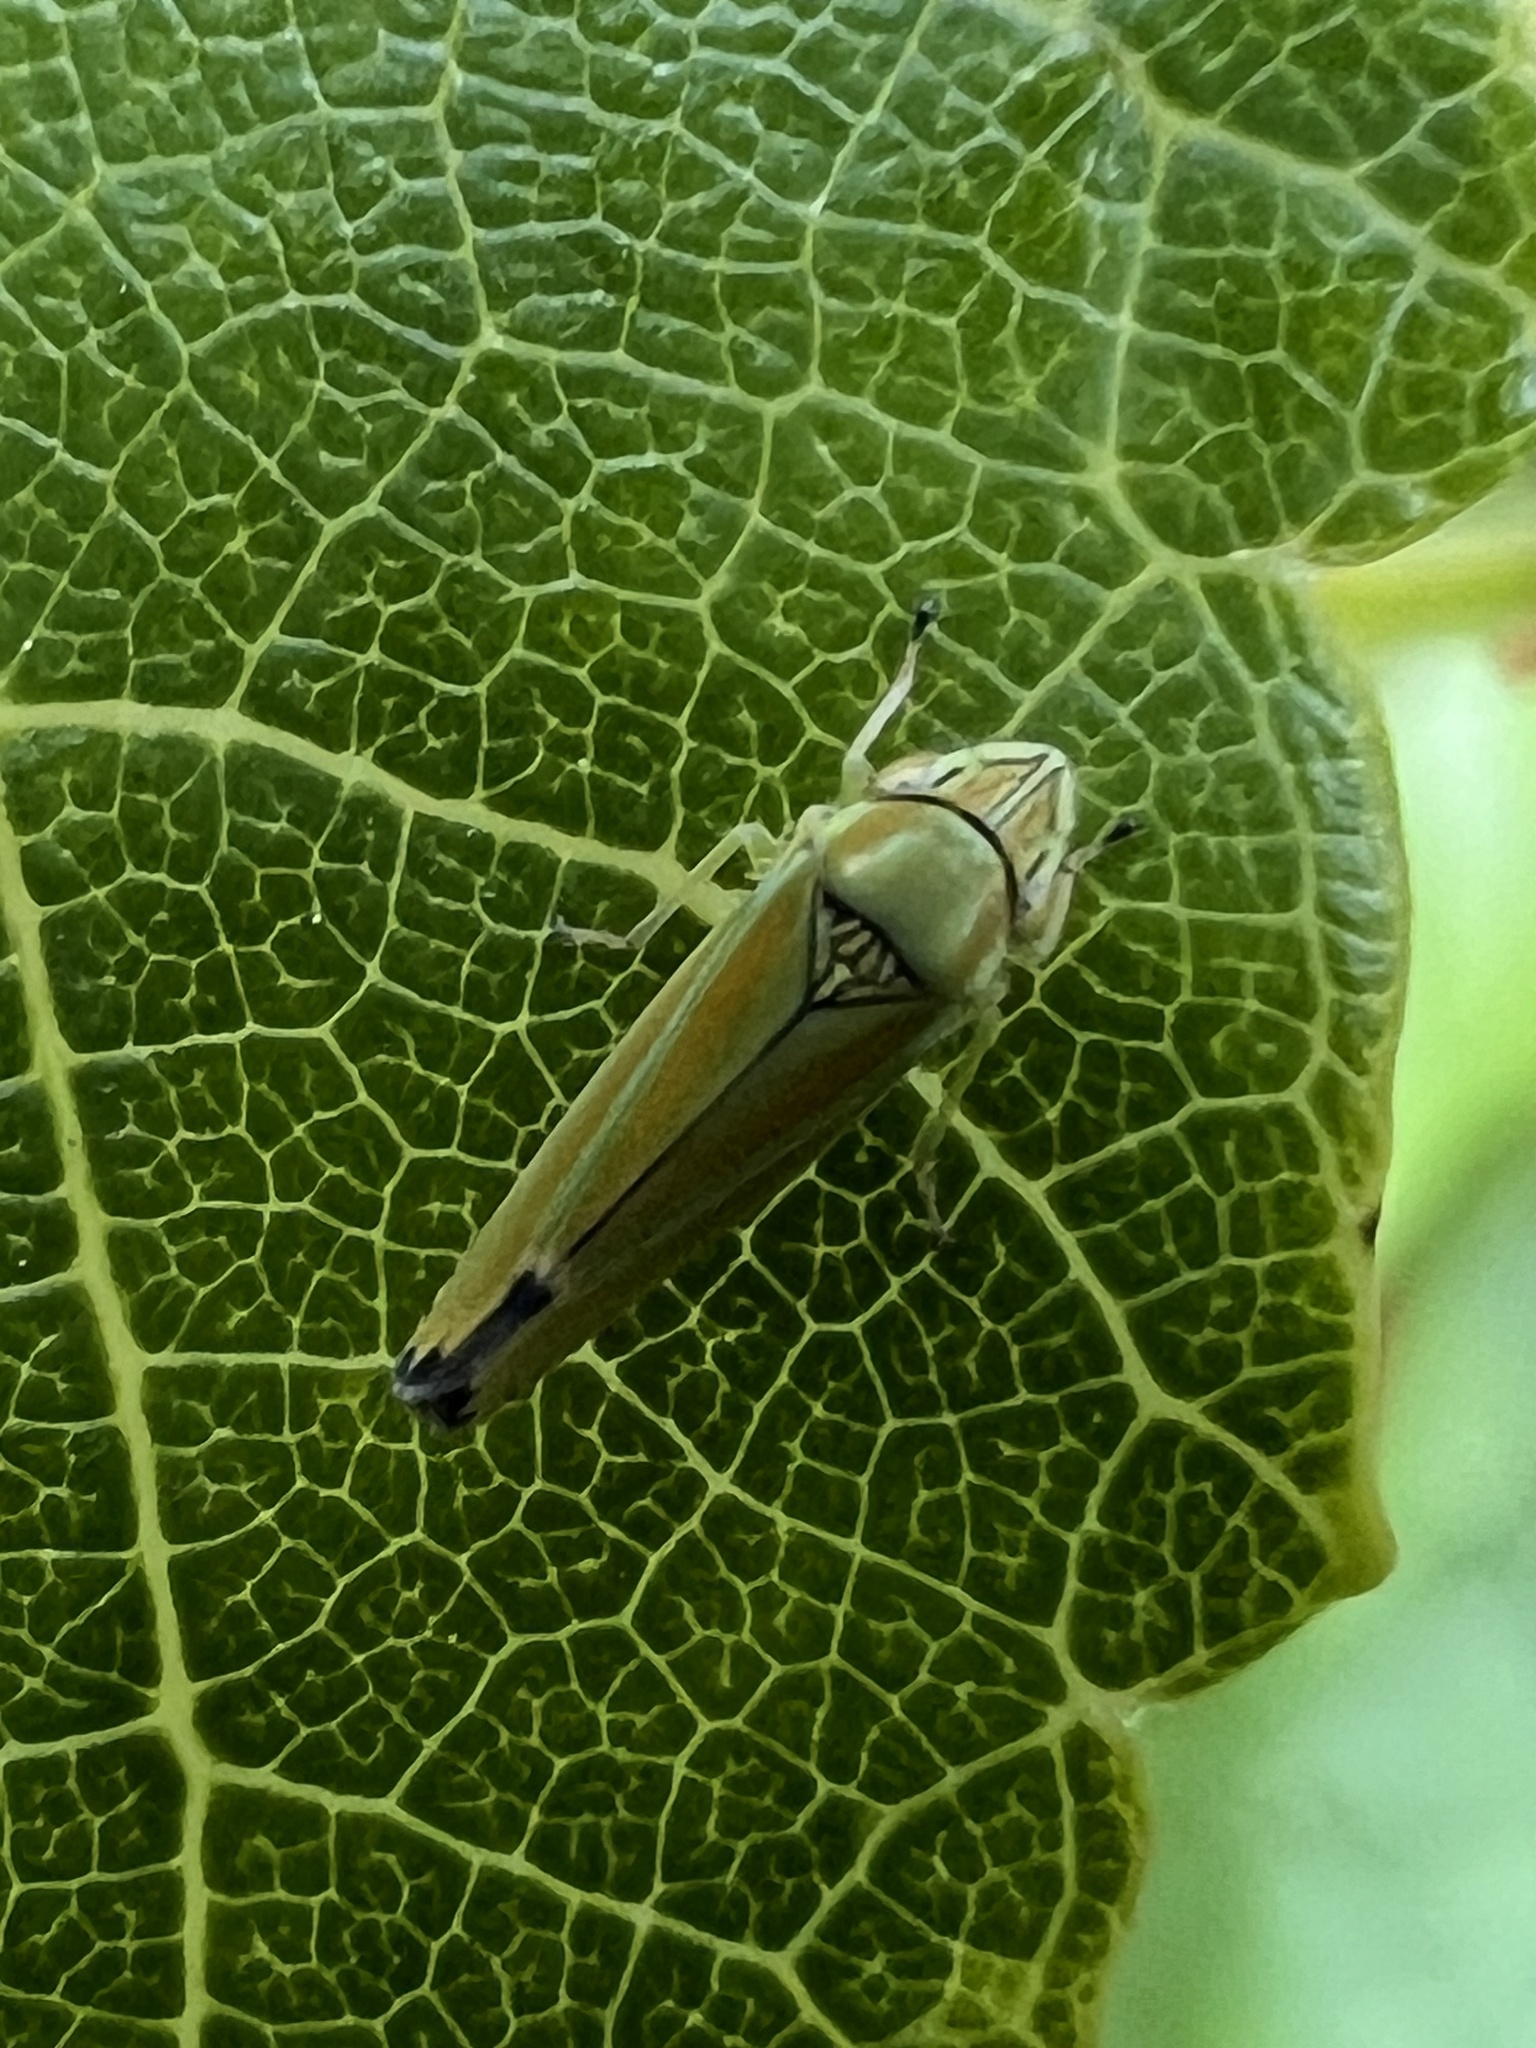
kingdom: Animalia
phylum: Arthropoda
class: Insecta
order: Hemiptera
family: Cicadellidae
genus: Graphocephala
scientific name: Graphocephala versuta
